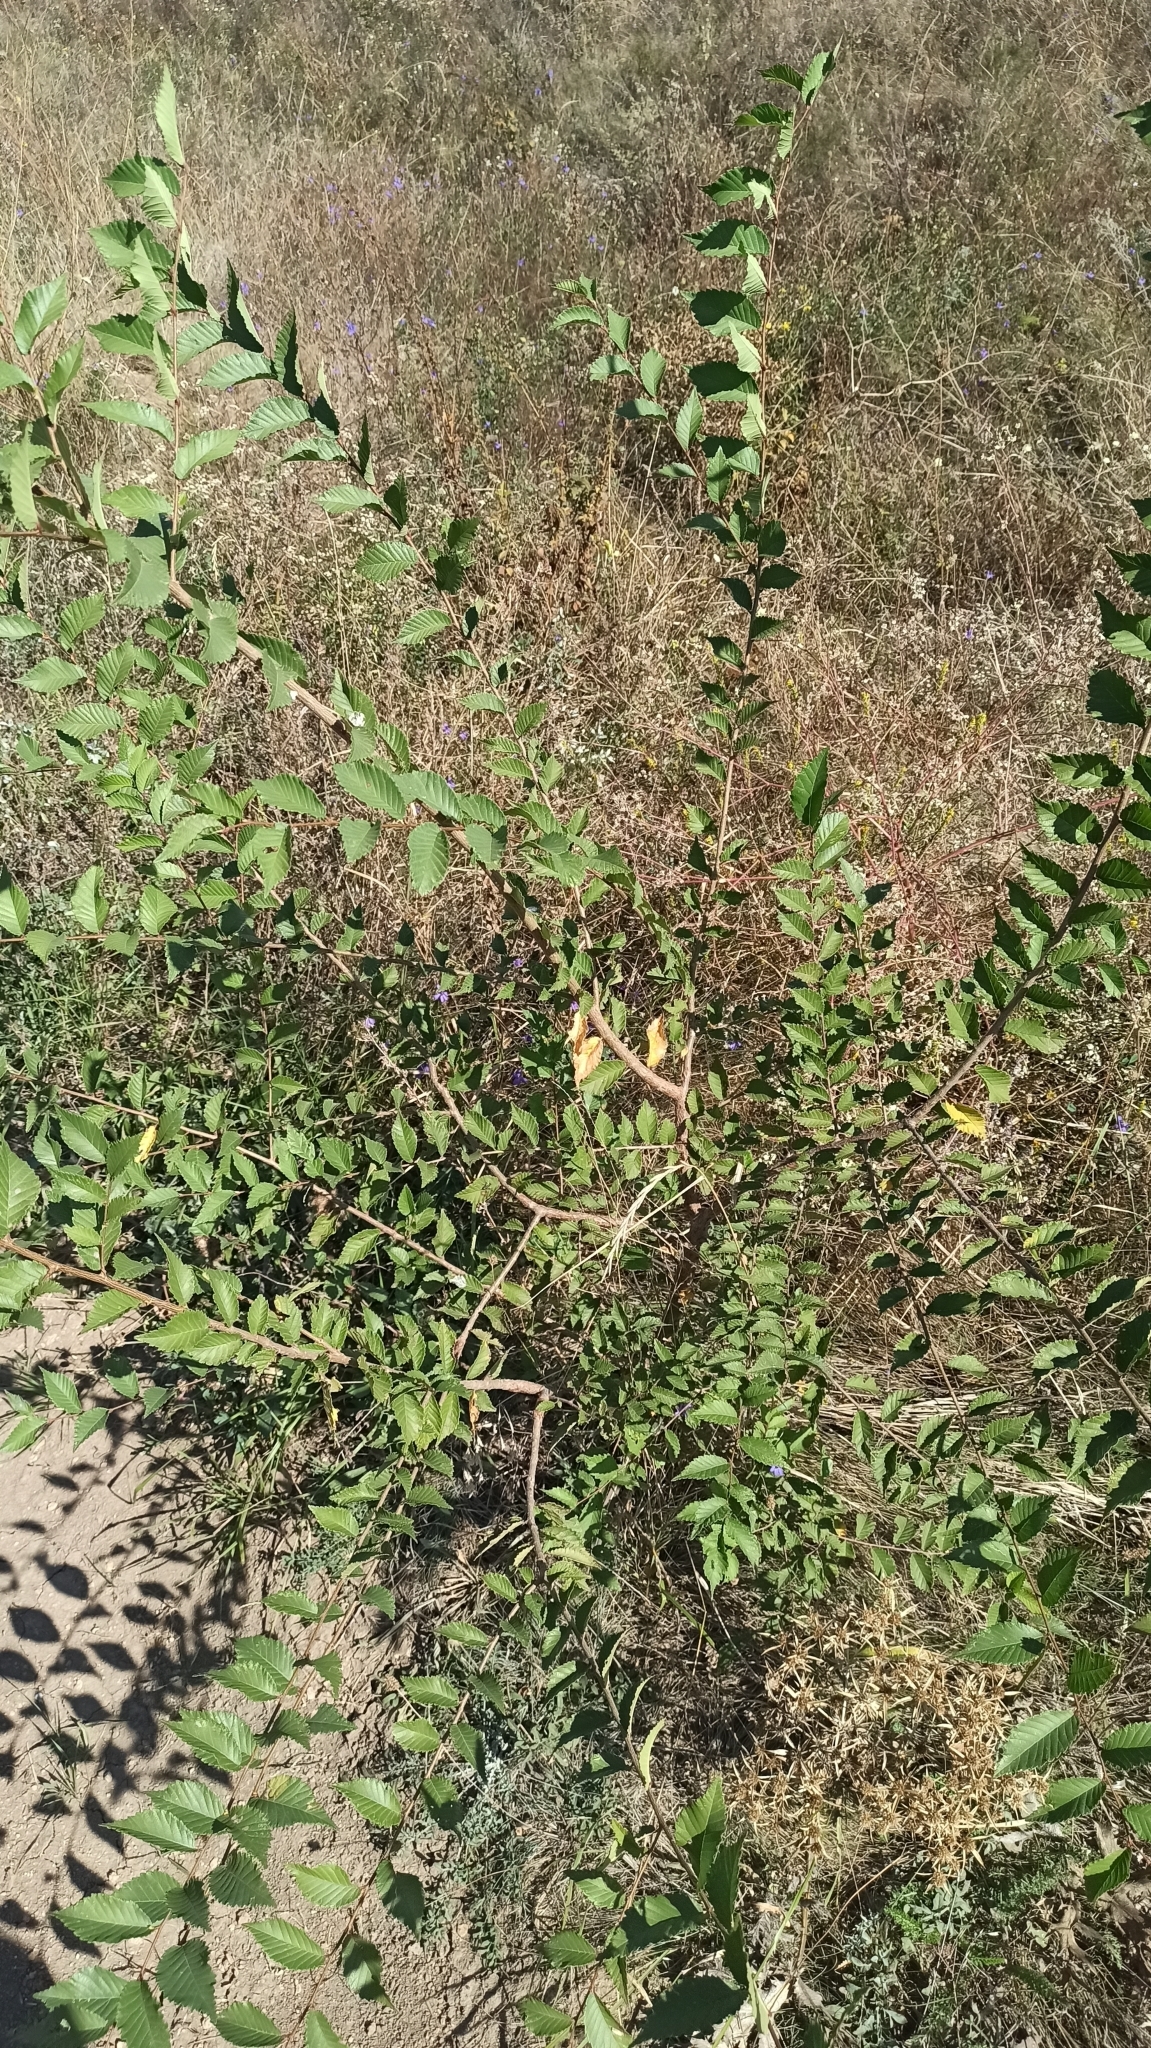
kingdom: Plantae
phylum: Tracheophyta
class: Magnoliopsida
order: Rosales
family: Ulmaceae
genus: Ulmus
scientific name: Ulmus pumila
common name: Siberian elm
